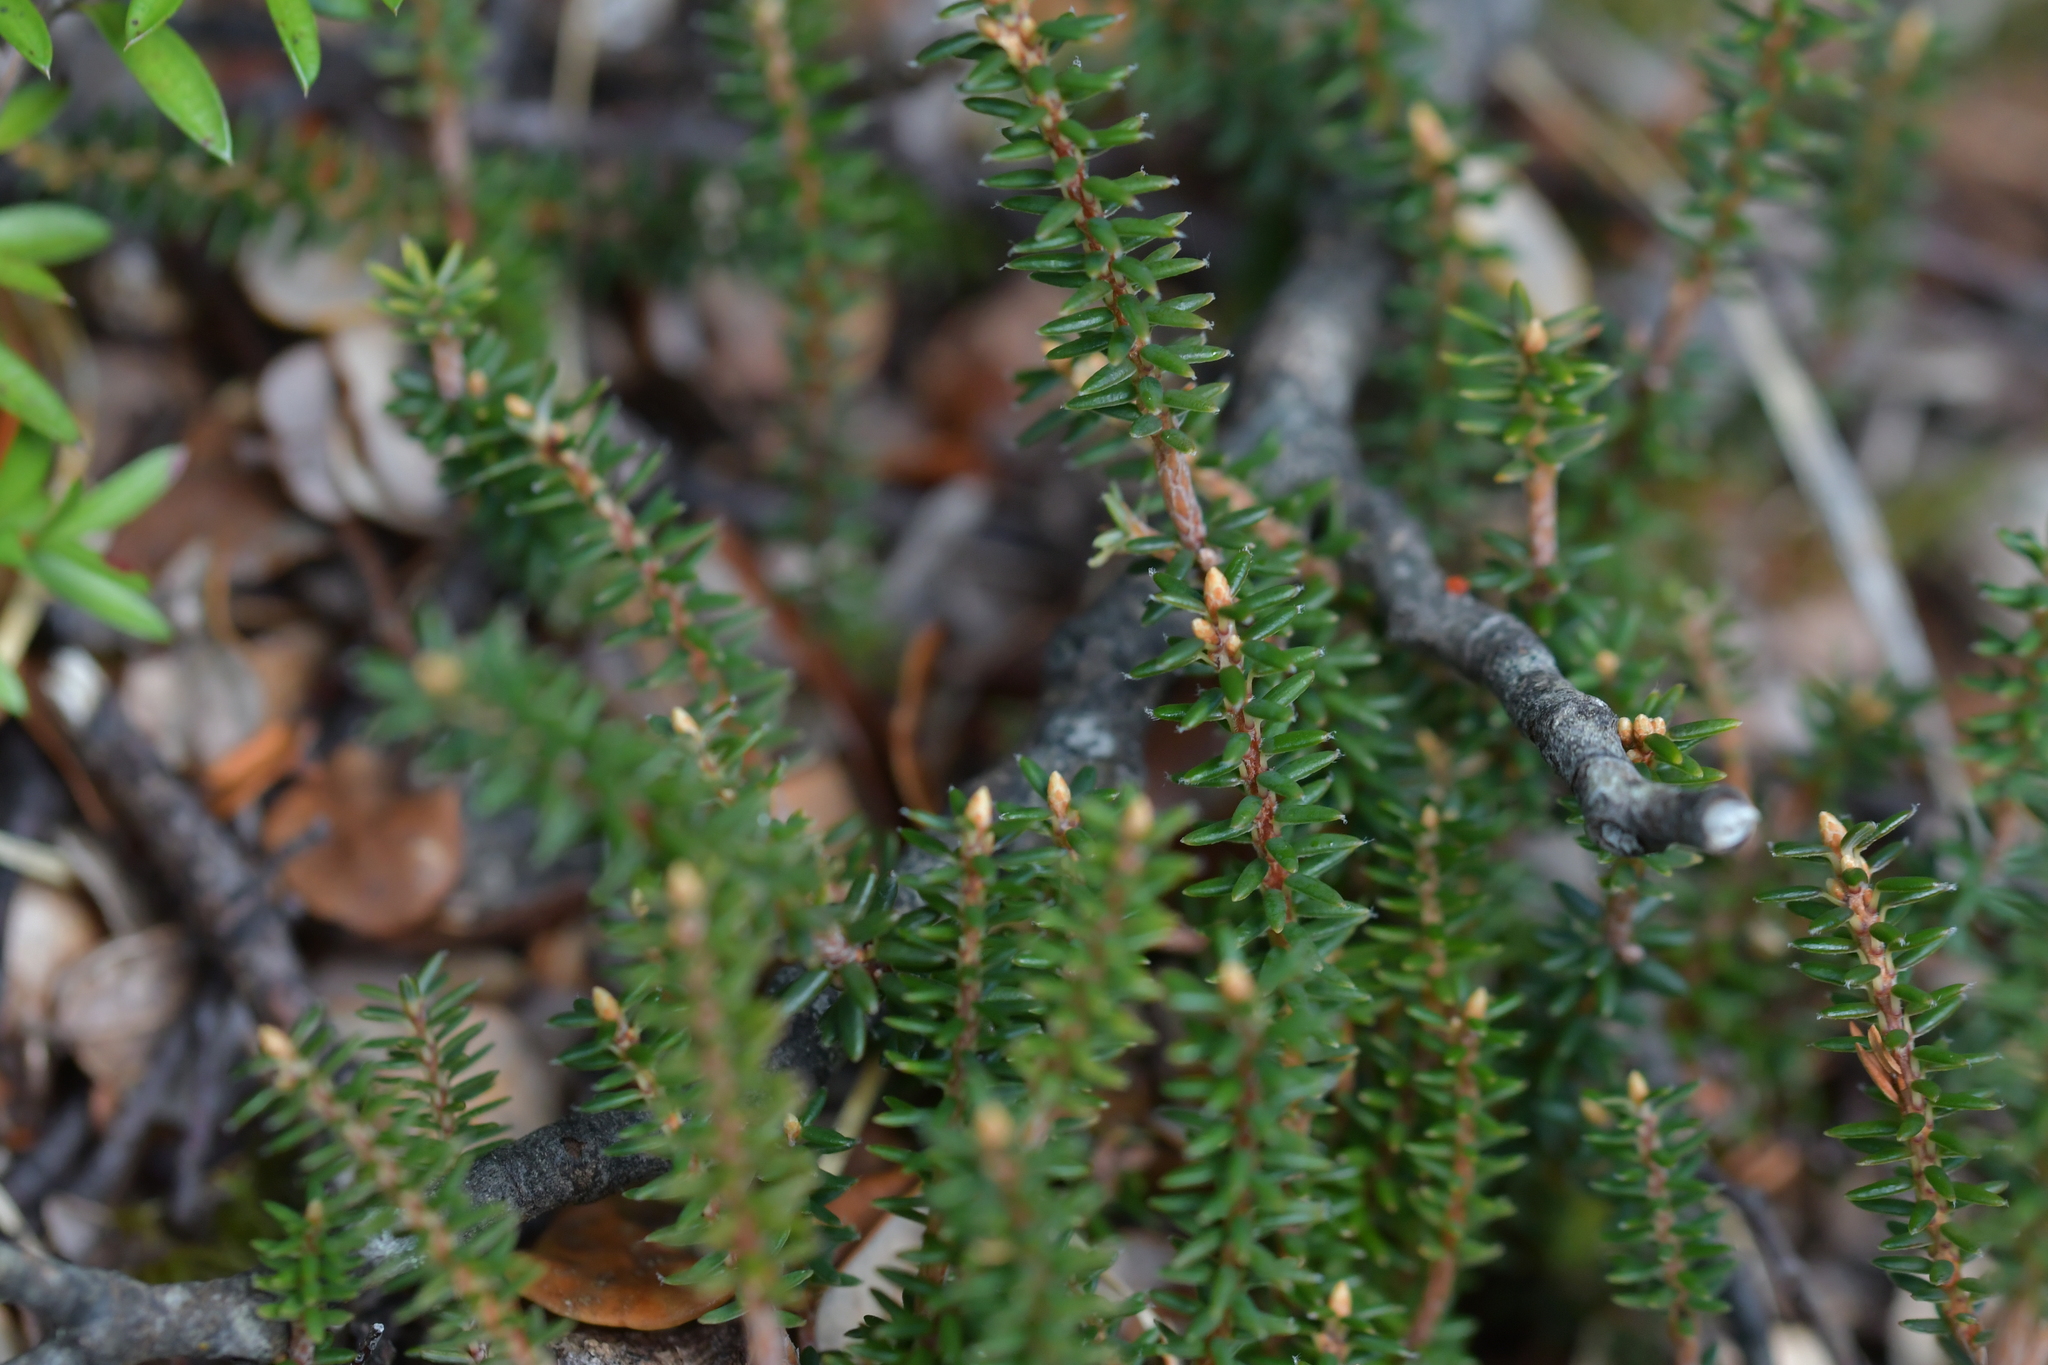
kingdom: Plantae
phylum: Tracheophyta
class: Magnoliopsida
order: Ericales
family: Ericaceae
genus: Androstoma
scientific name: Androstoma empetrifolia
